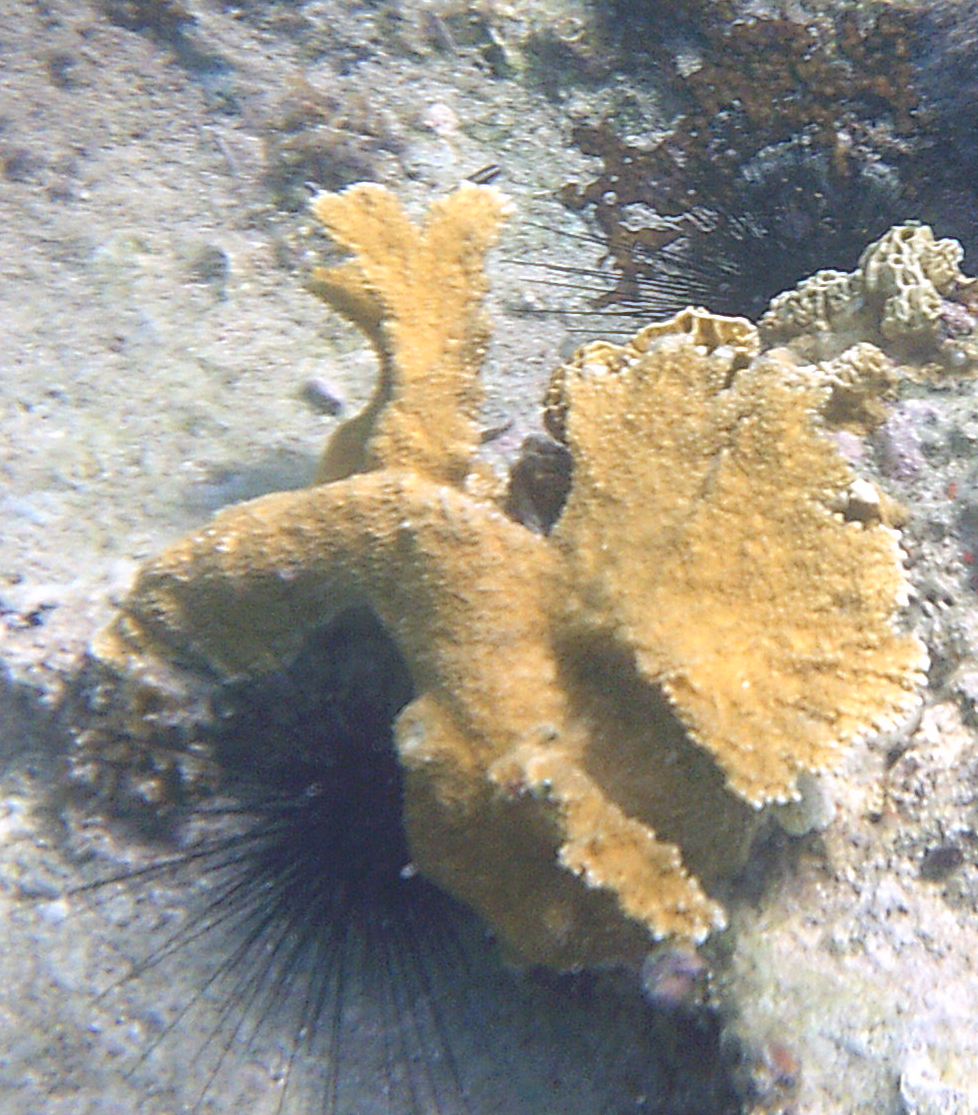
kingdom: Animalia
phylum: Cnidaria
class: Anthozoa
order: Scleractinia
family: Acroporidae
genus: Acropora
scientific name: Acropora palmata
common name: Elkhorn coral
